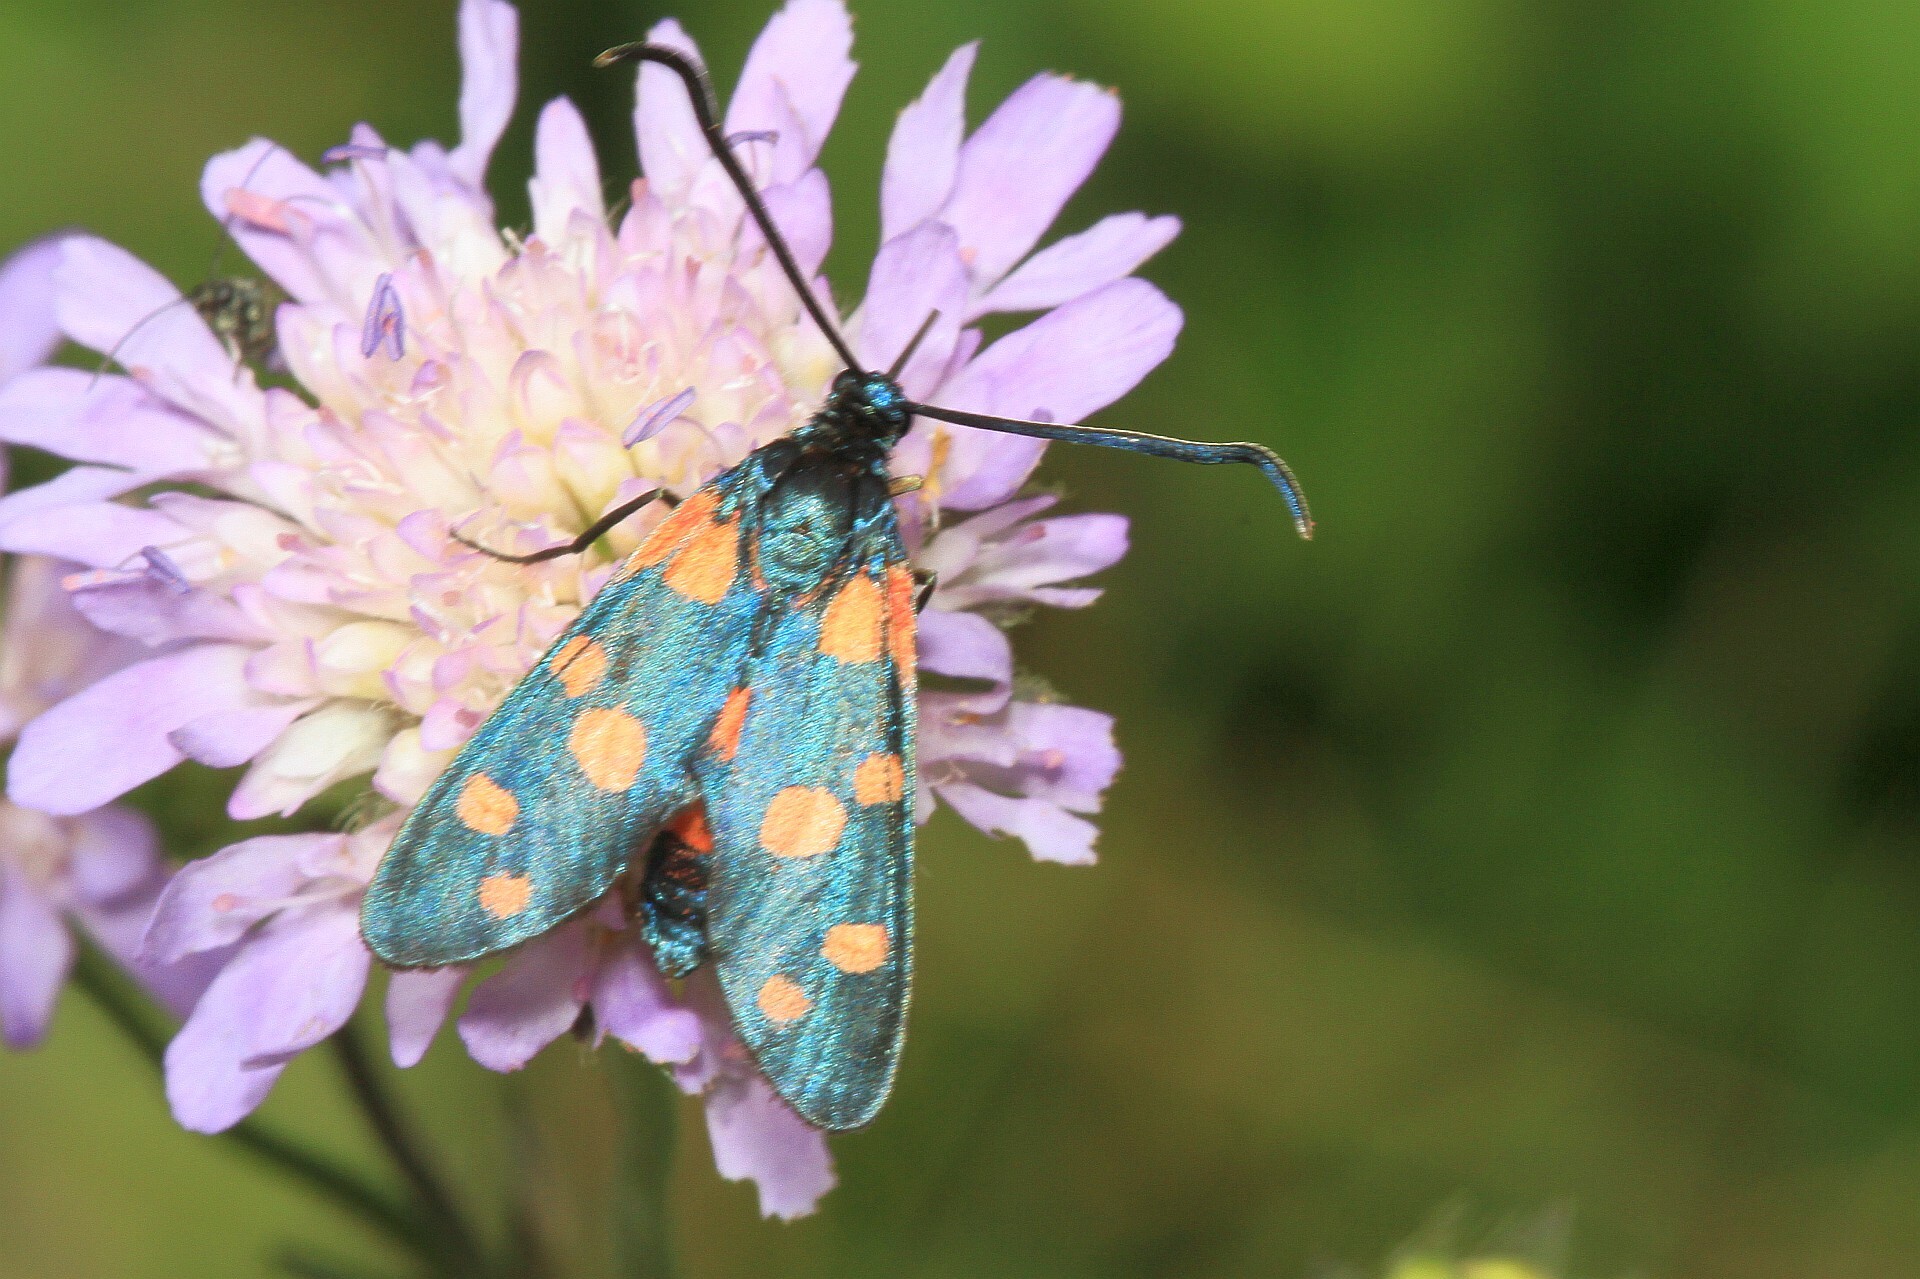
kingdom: Animalia
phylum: Arthropoda
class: Insecta
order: Lepidoptera
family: Zygaenidae
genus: Zygaena
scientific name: Zygaena ephialtes
